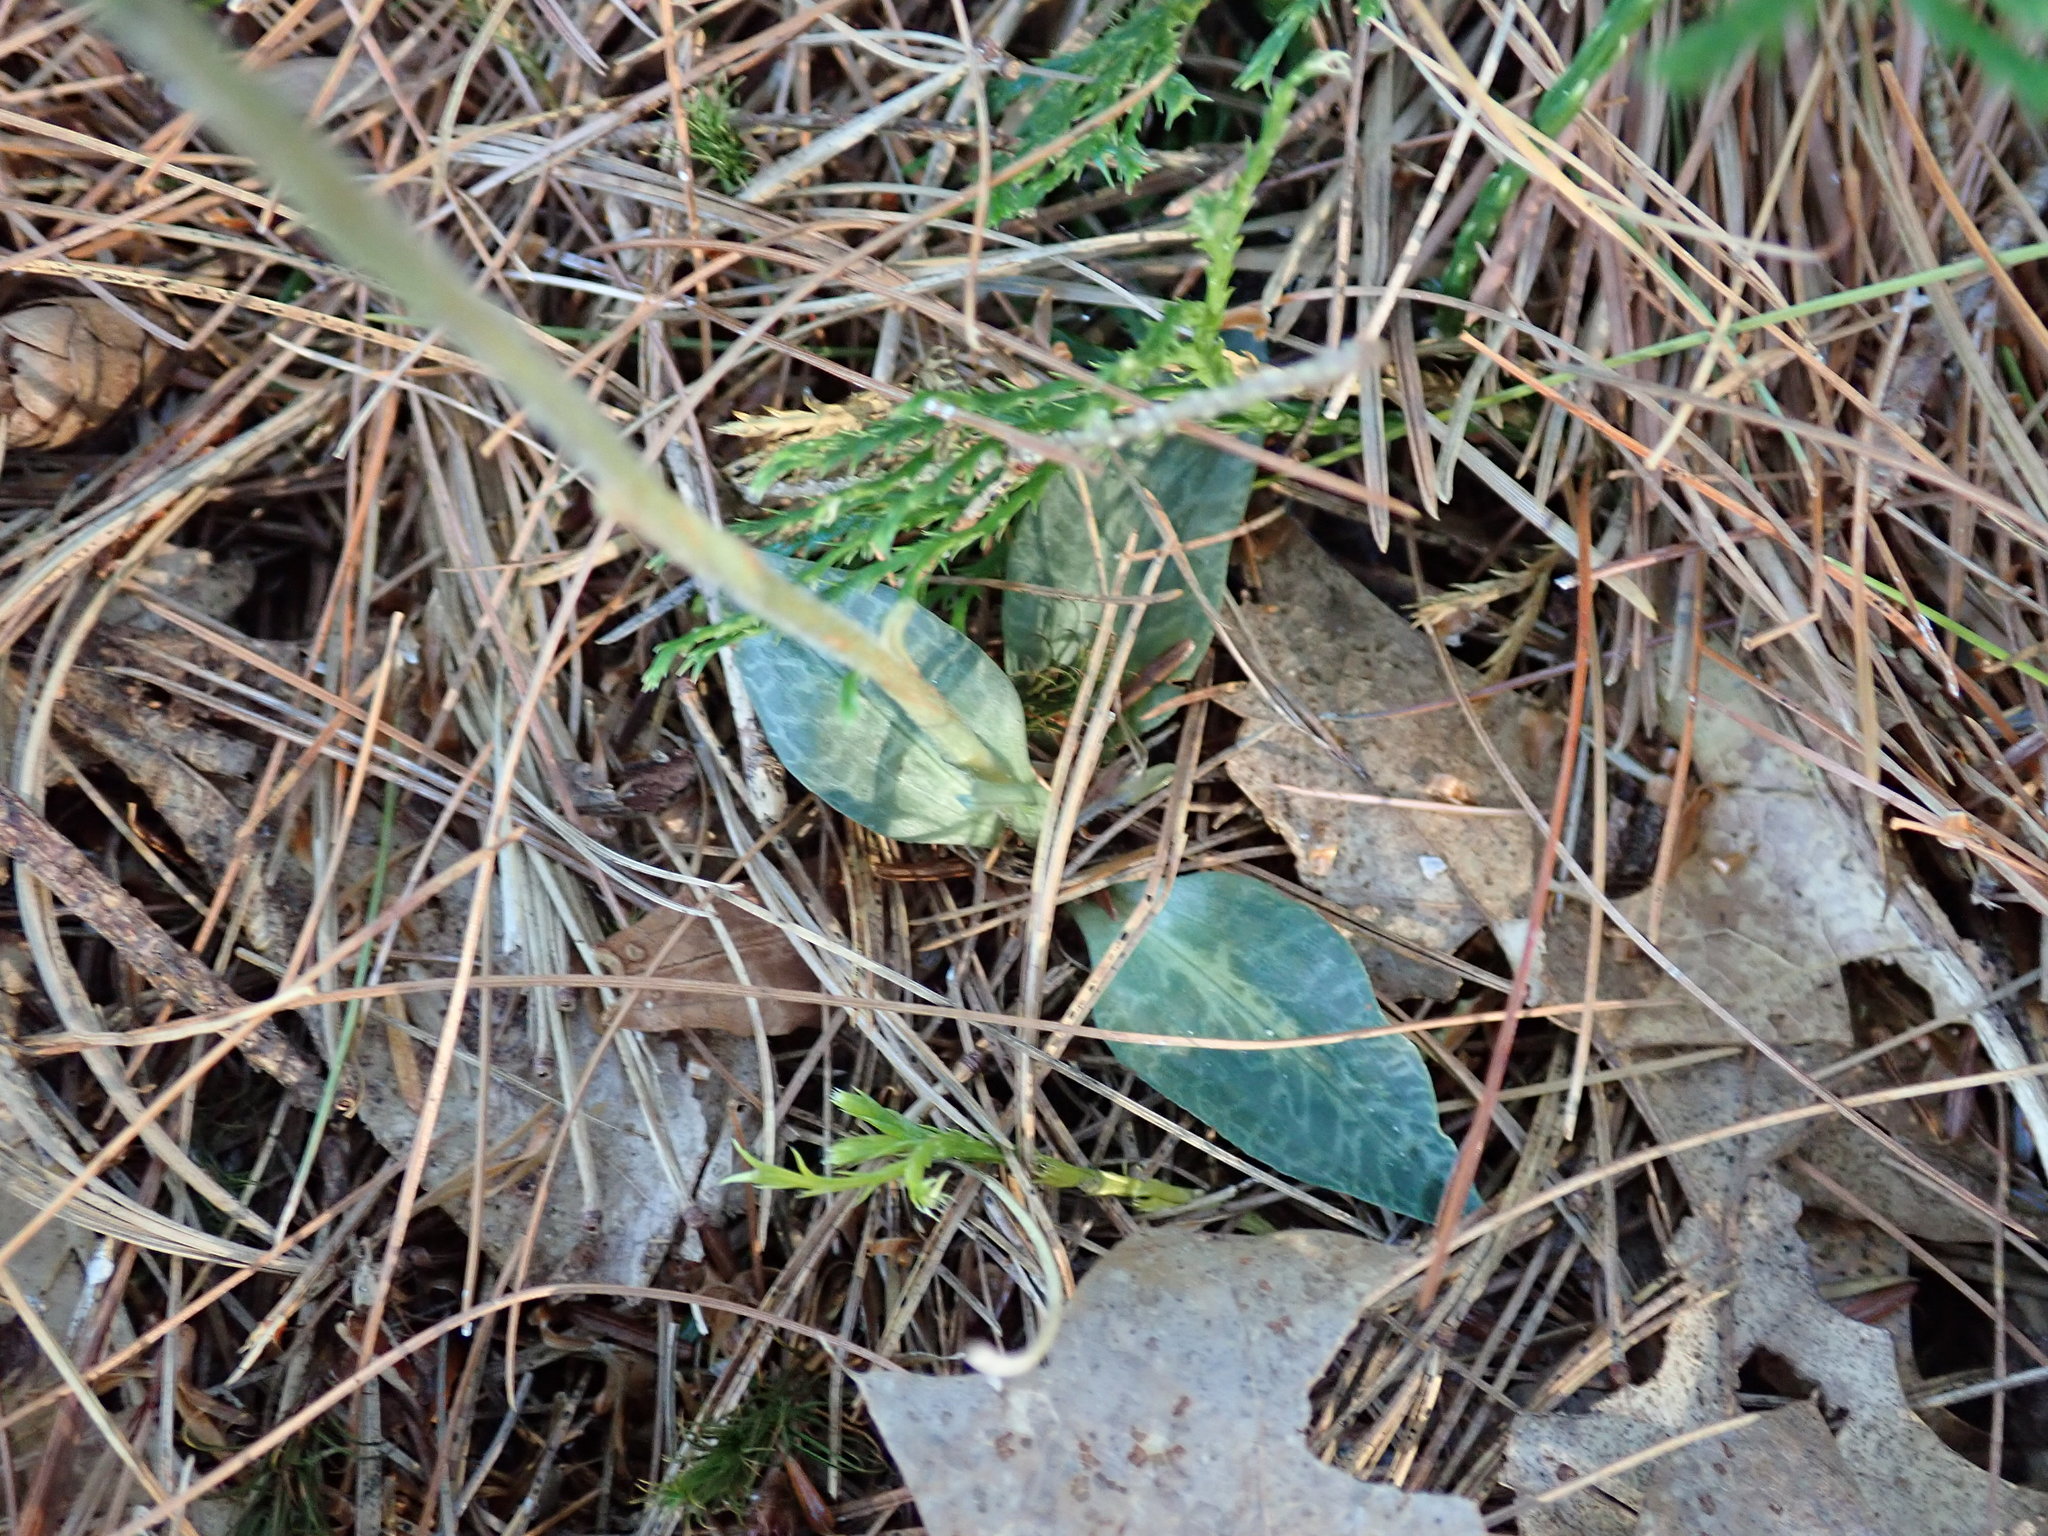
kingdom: Plantae
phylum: Tracheophyta
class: Liliopsida
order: Asparagales
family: Orchidaceae
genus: Goodyera
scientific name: Goodyera tesselata
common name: Checkered rattlesnake-plantain
